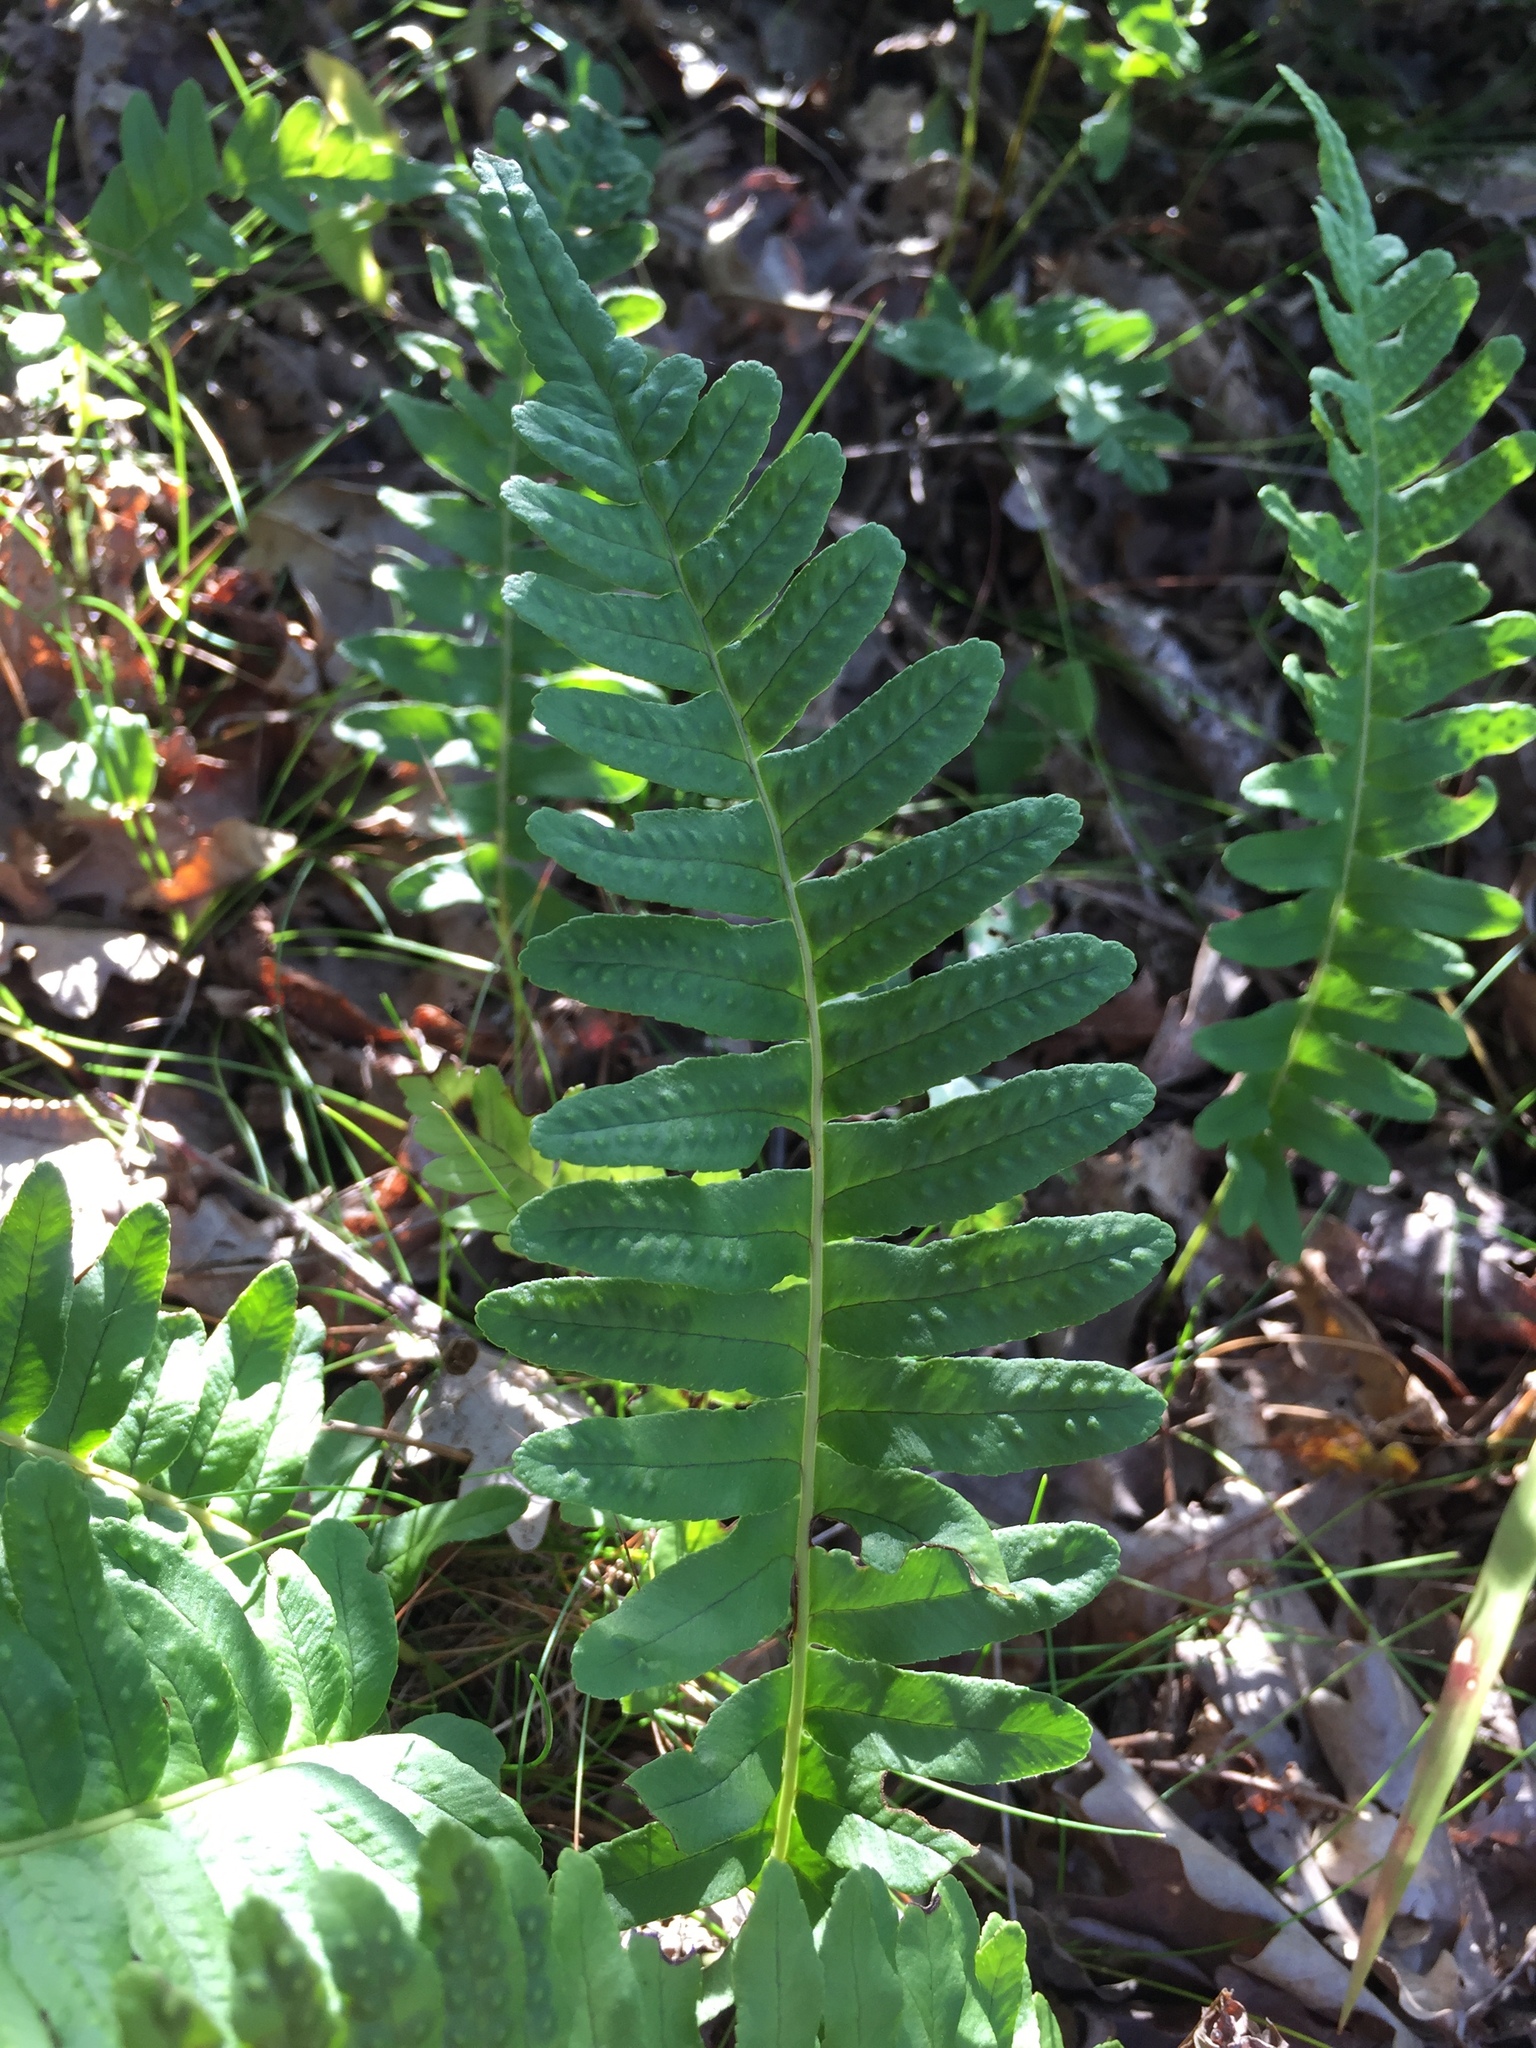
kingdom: Plantae
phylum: Tracheophyta
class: Polypodiopsida
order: Polypodiales
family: Polypodiaceae
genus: Polypodium
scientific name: Polypodium vulgare
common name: Common polypody
